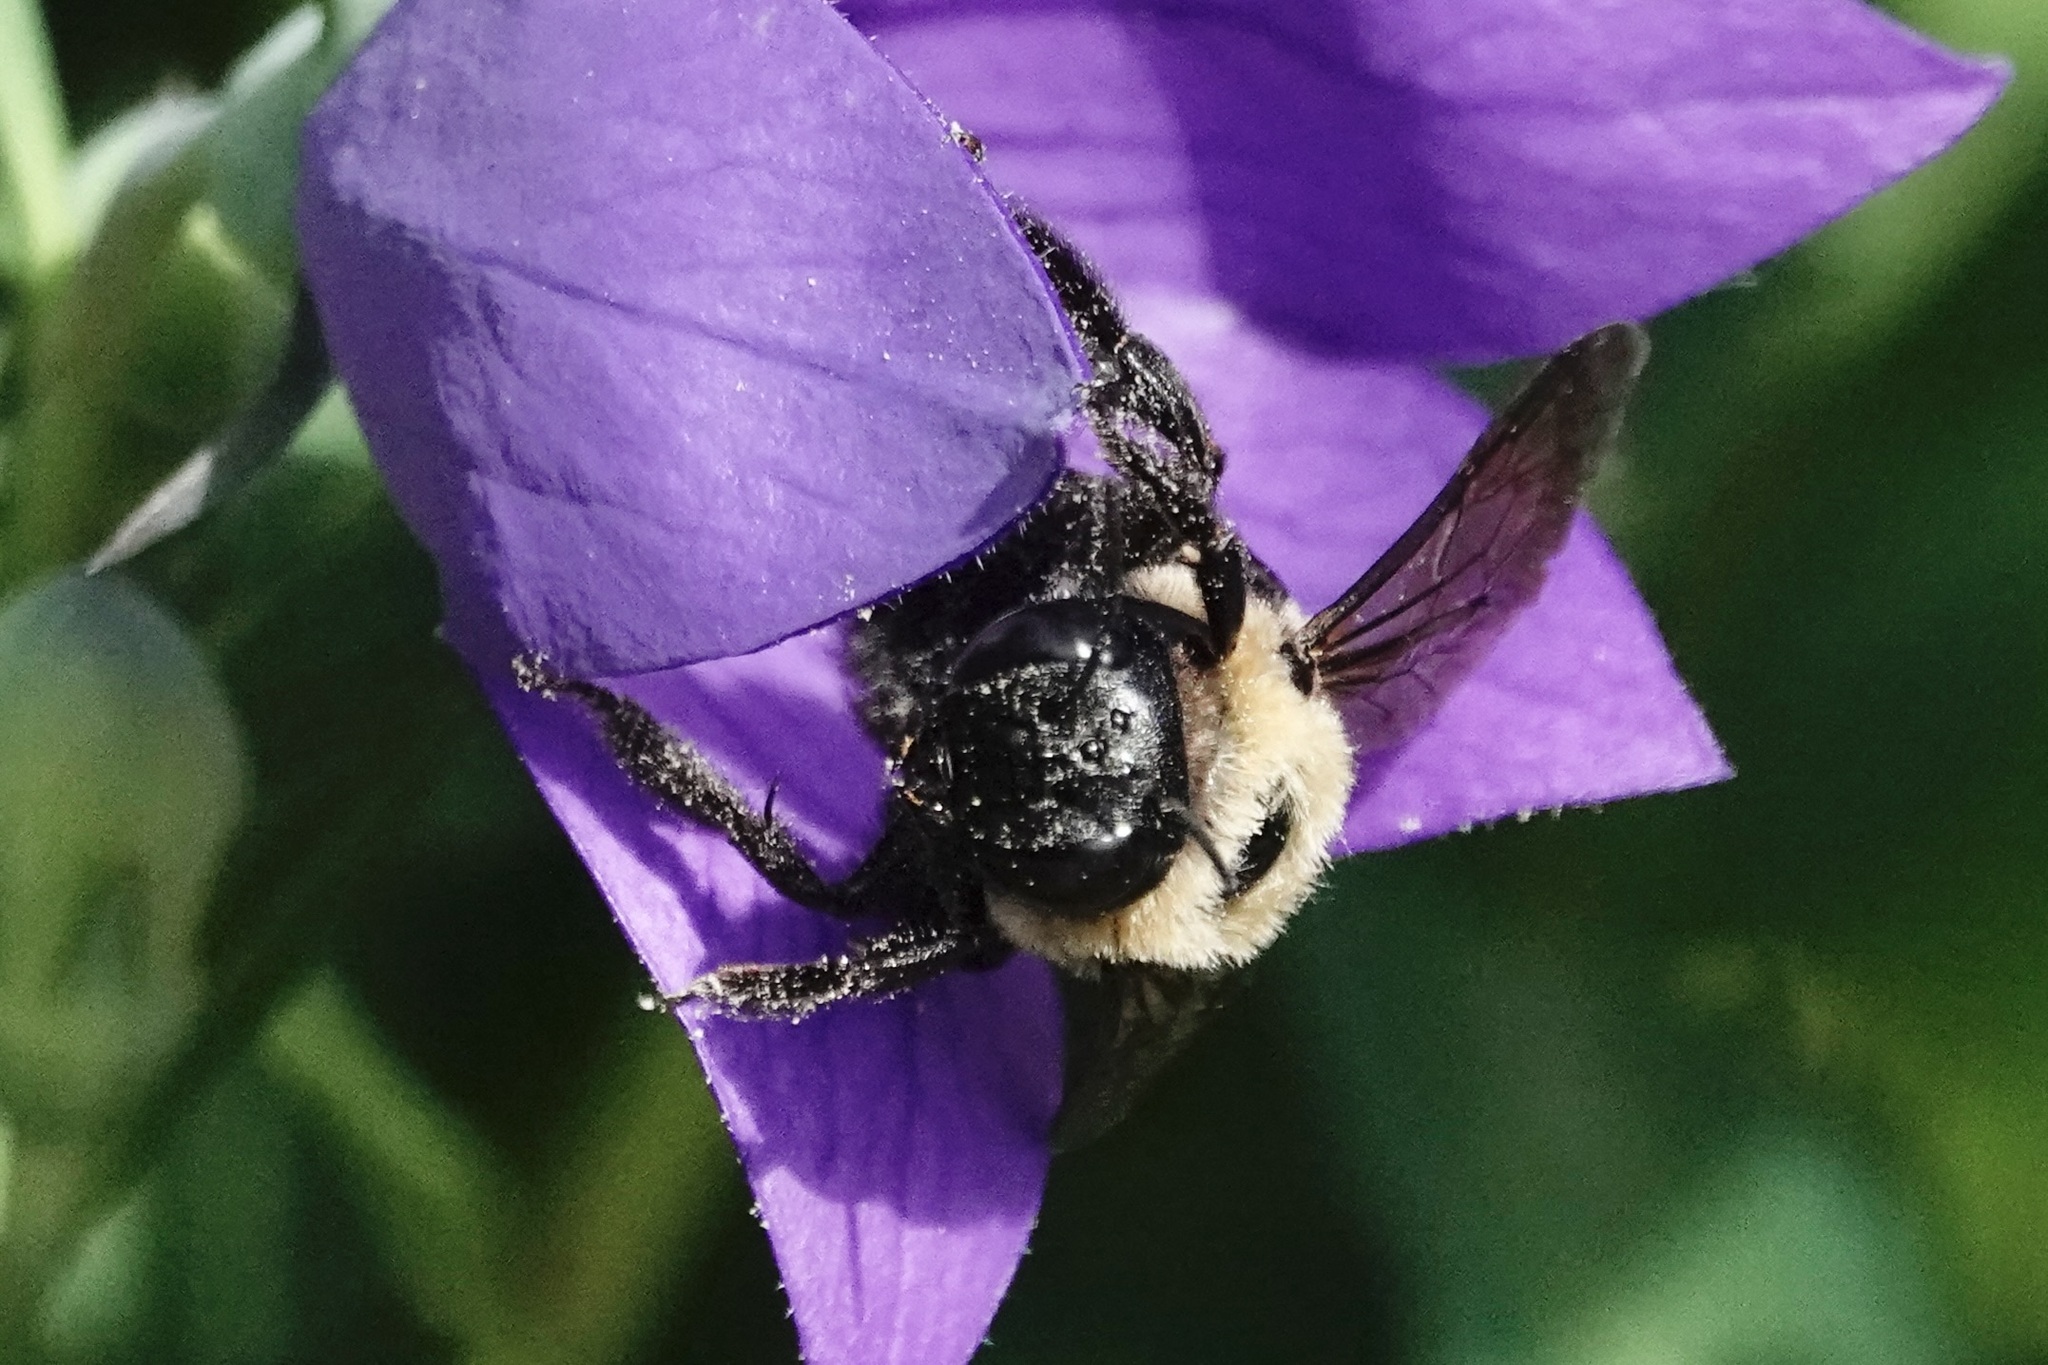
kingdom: Animalia
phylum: Arthropoda
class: Insecta
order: Hymenoptera
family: Apidae
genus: Xylocopa
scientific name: Xylocopa virginica
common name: Carpenter bee
